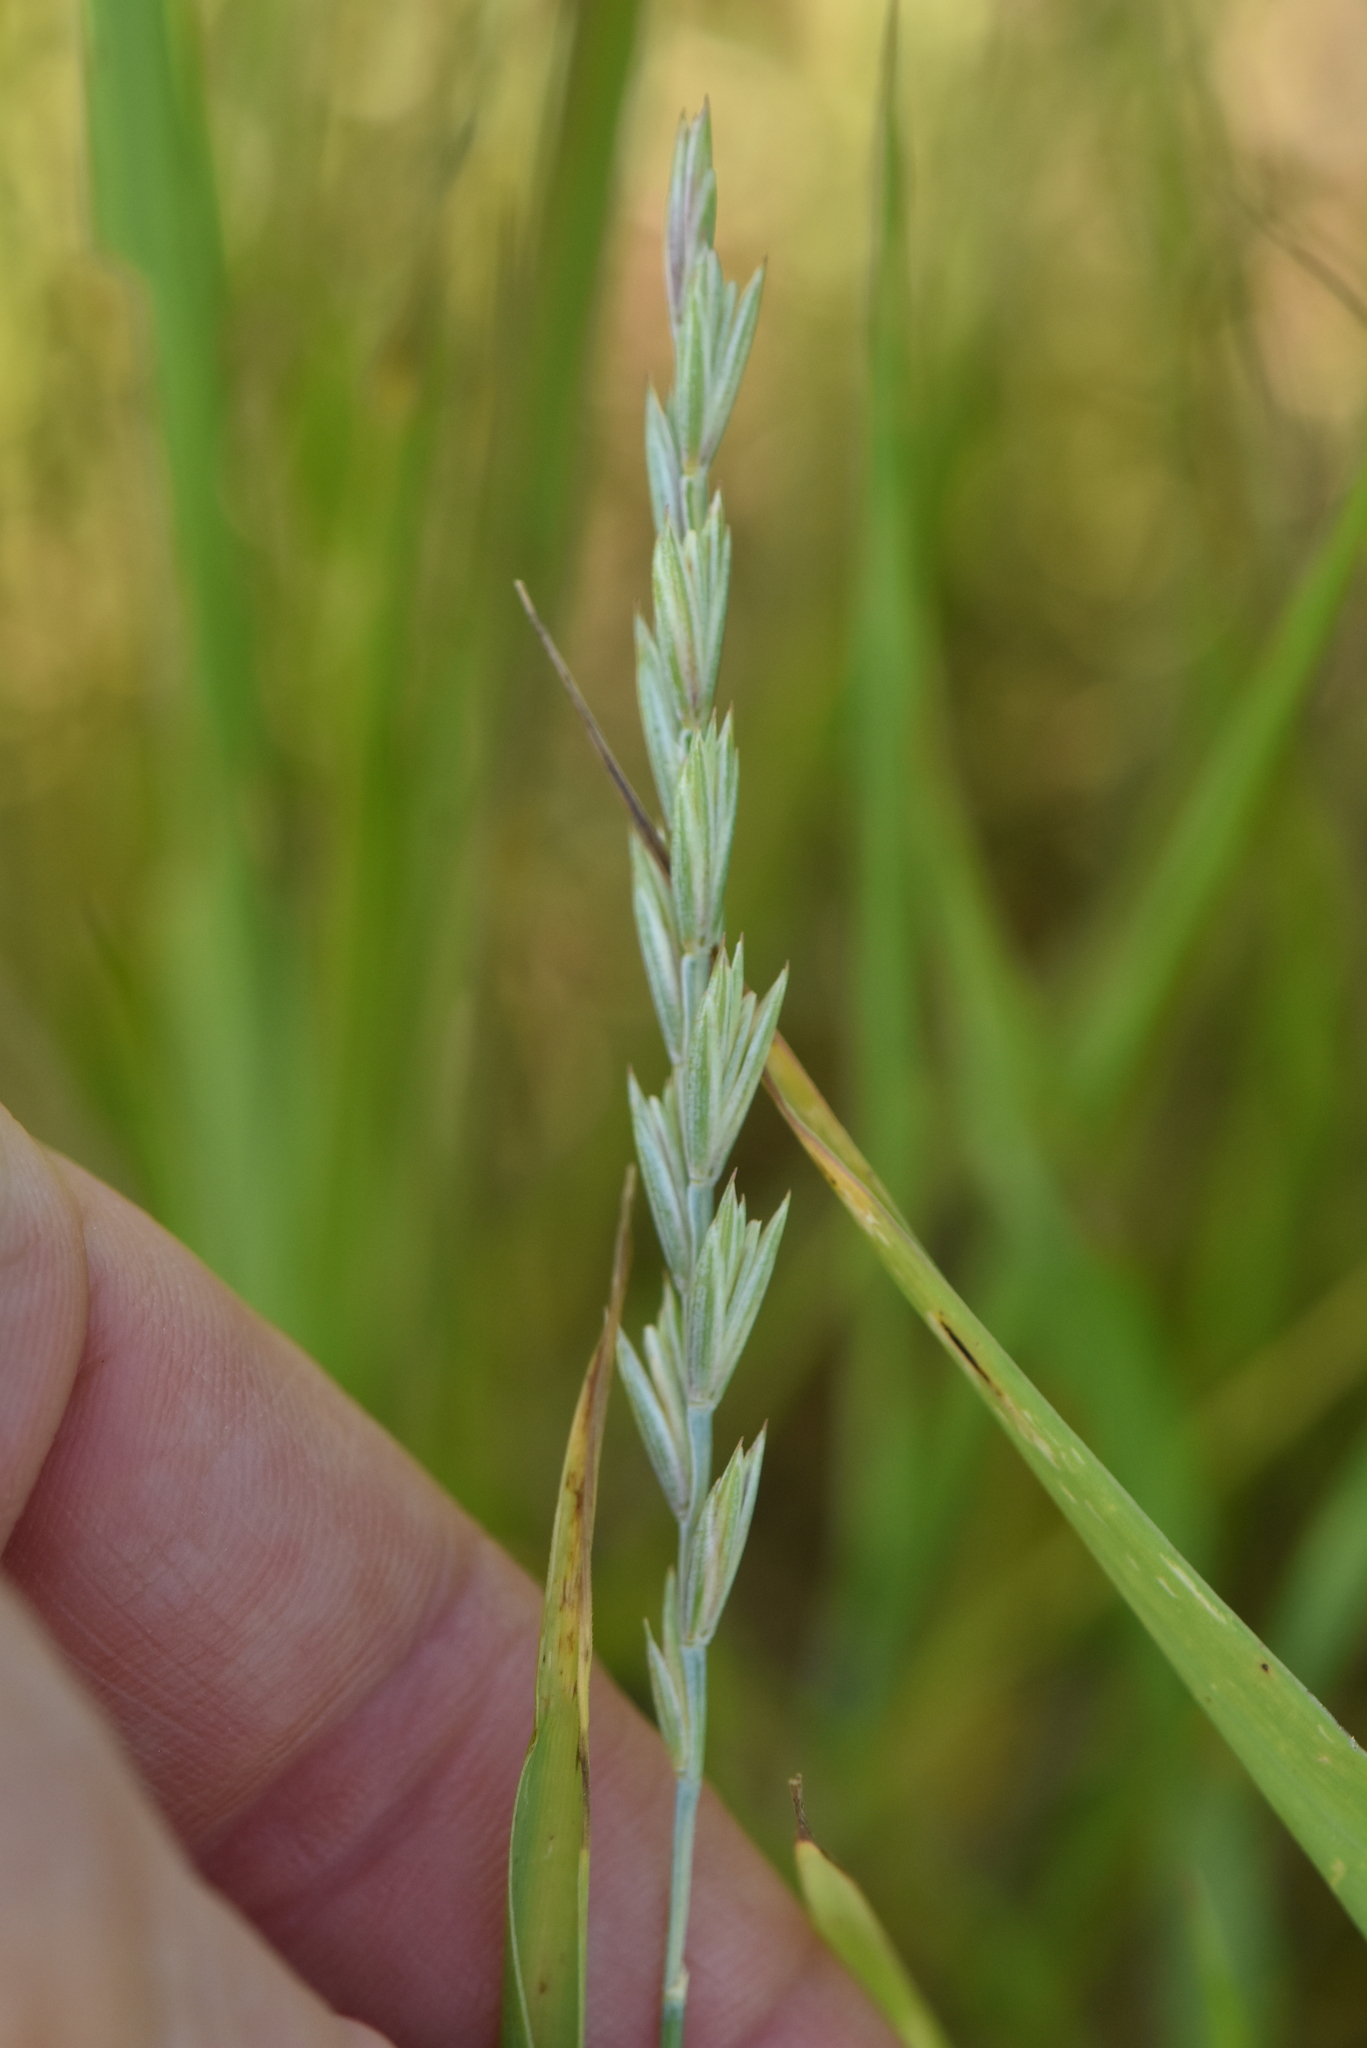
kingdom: Plantae
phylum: Tracheophyta
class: Liliopsida
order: Poales
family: Poaceae
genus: Elymus
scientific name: Elymus repens
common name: Quackgrass
